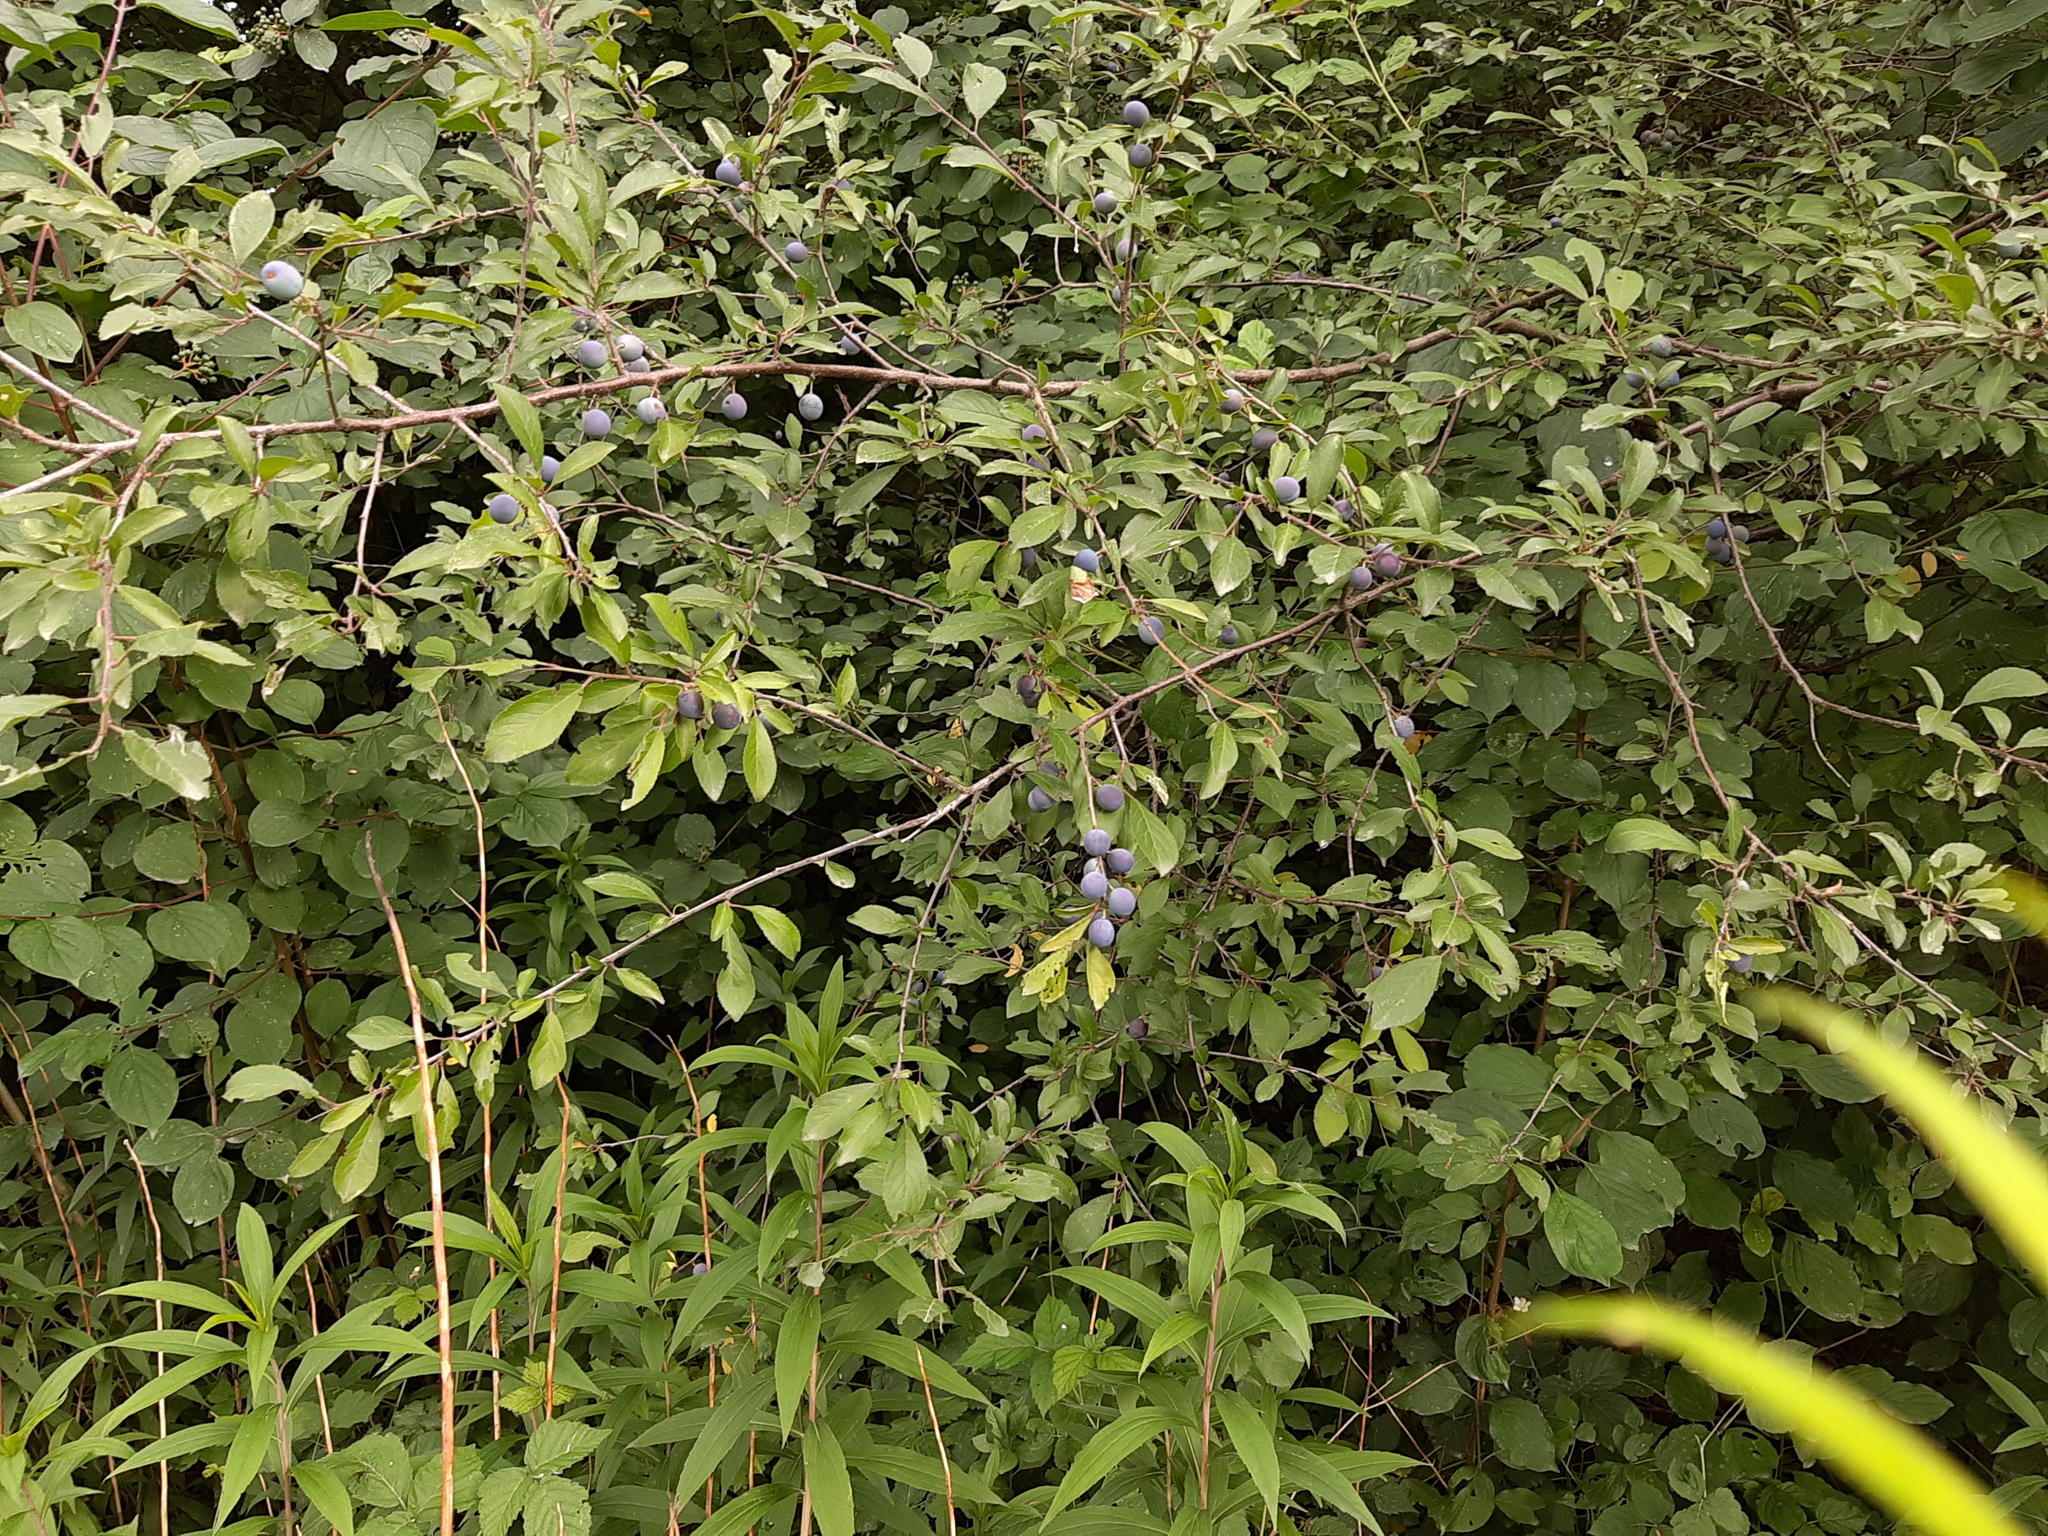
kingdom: Plantae
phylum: Tracheophyta
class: Magnoliopsida
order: Rosales
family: Rosaceae
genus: Prunus
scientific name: Prunus spinosa
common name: Blackthorn
